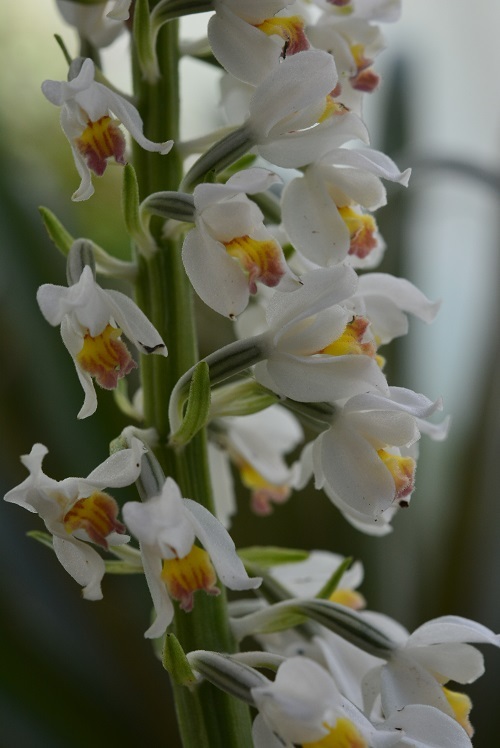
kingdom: Plantae
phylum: Tracheophyta
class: Liliopsida
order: Asparagales
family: Orchidaceae
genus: Calanthe
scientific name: Calanthe calanthoides
